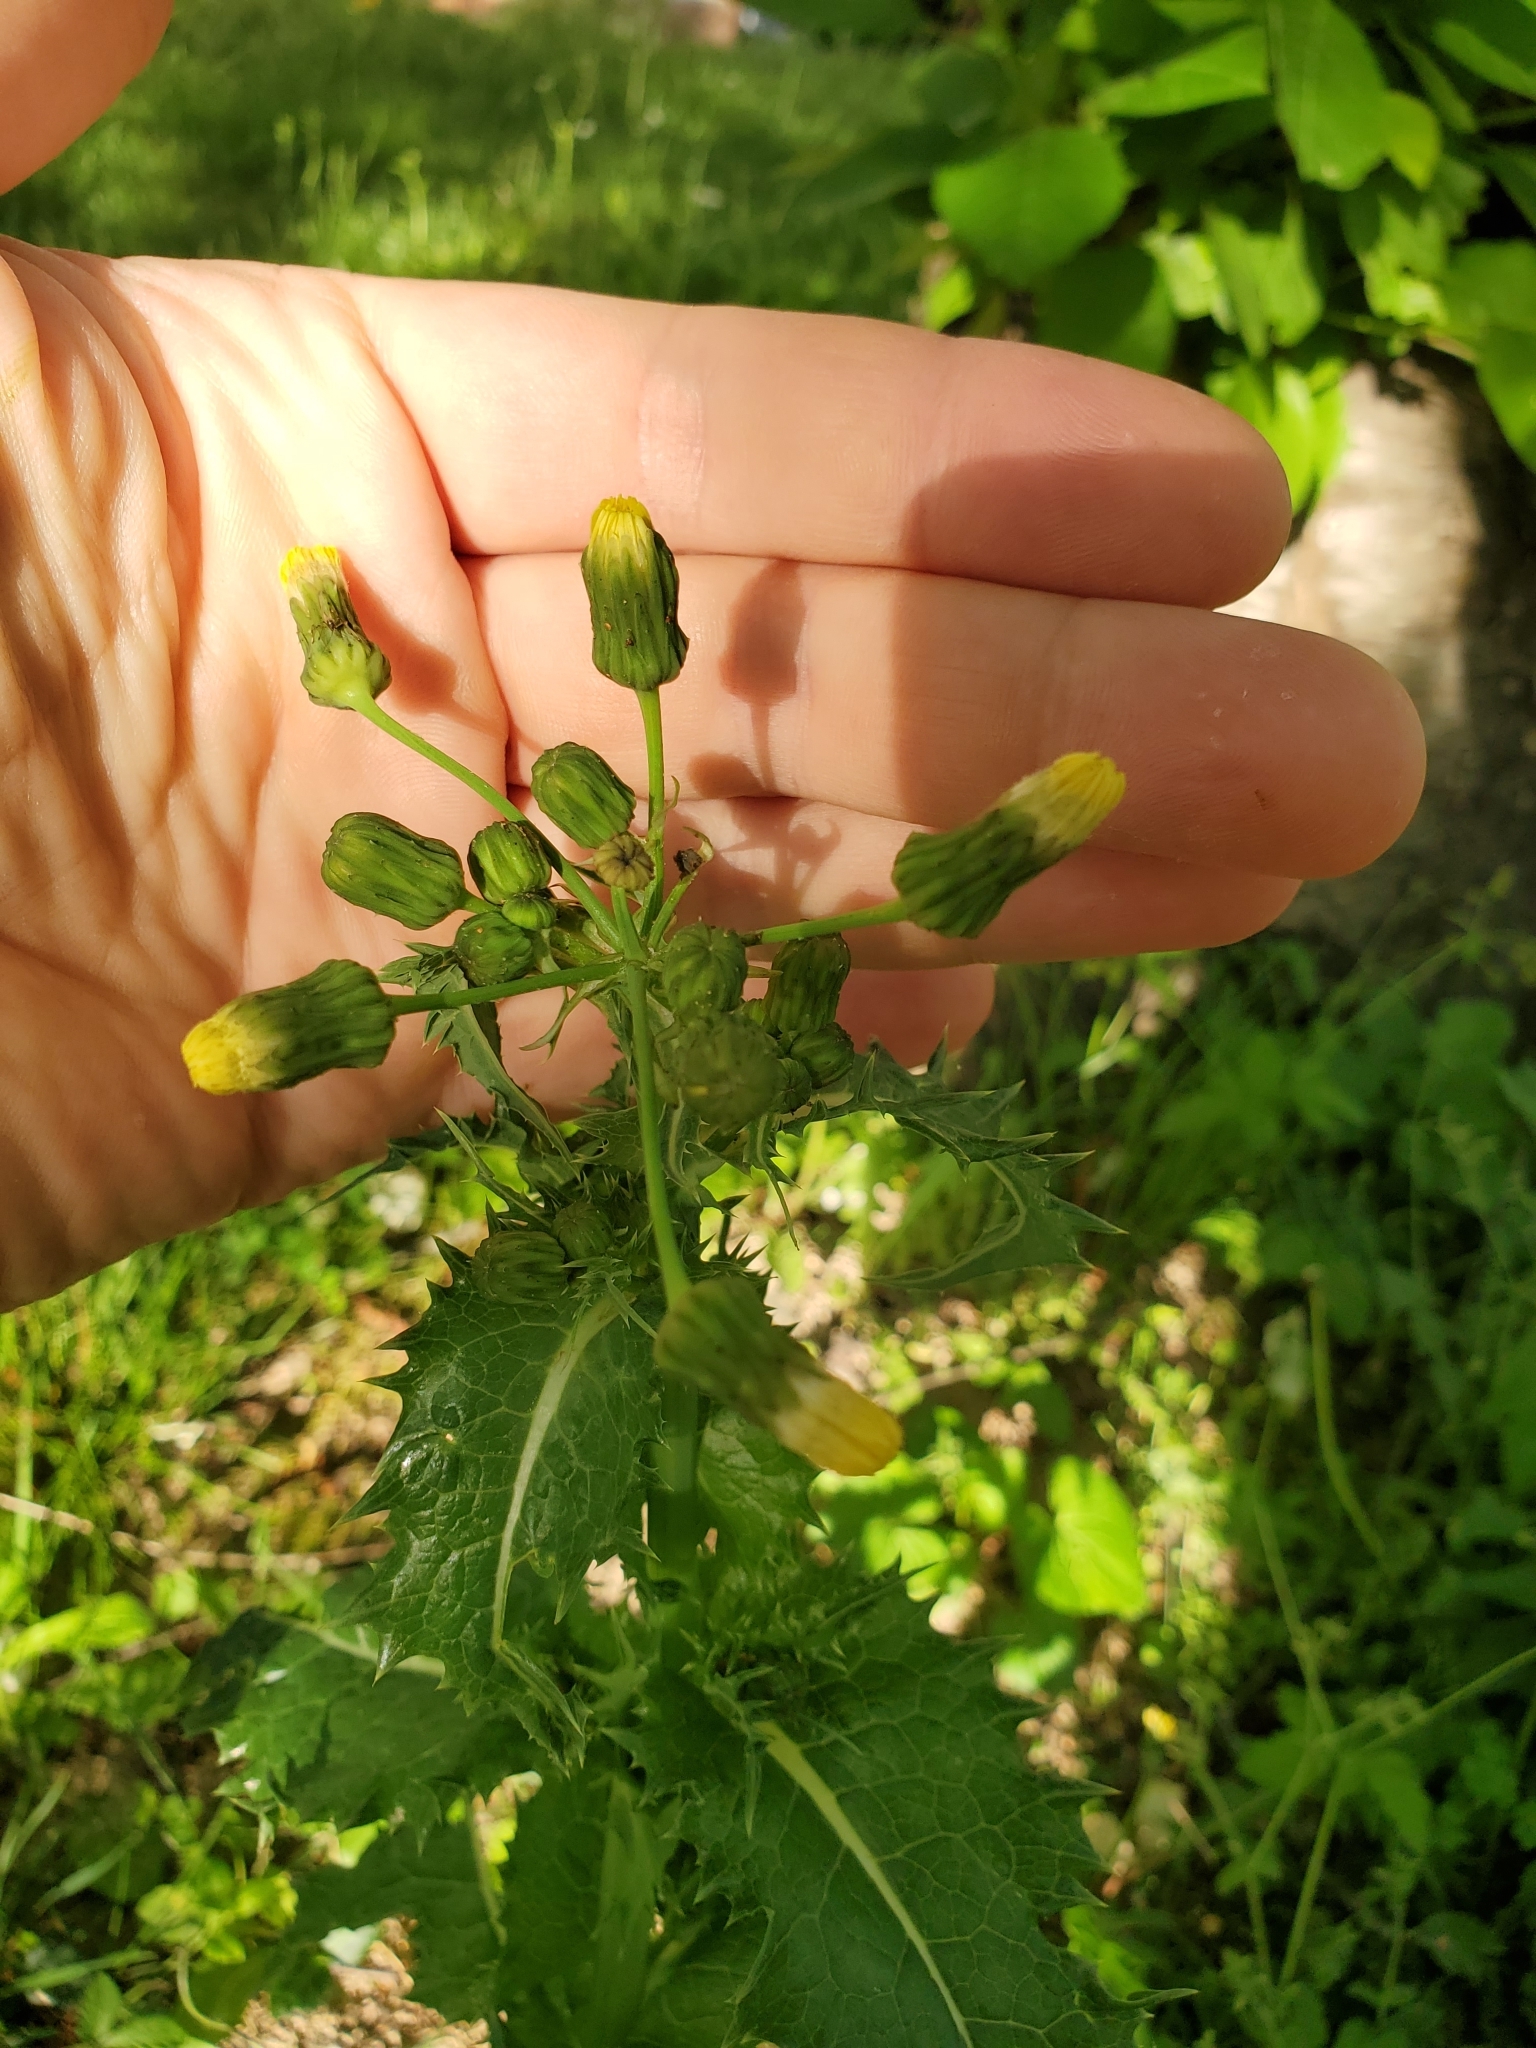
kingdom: Plantae
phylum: Tracheophyta
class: Magnoliopsida
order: Asterales
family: Asteraceae
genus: Sonchus
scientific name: Sonchus asper
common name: Prickly sow-thistle
